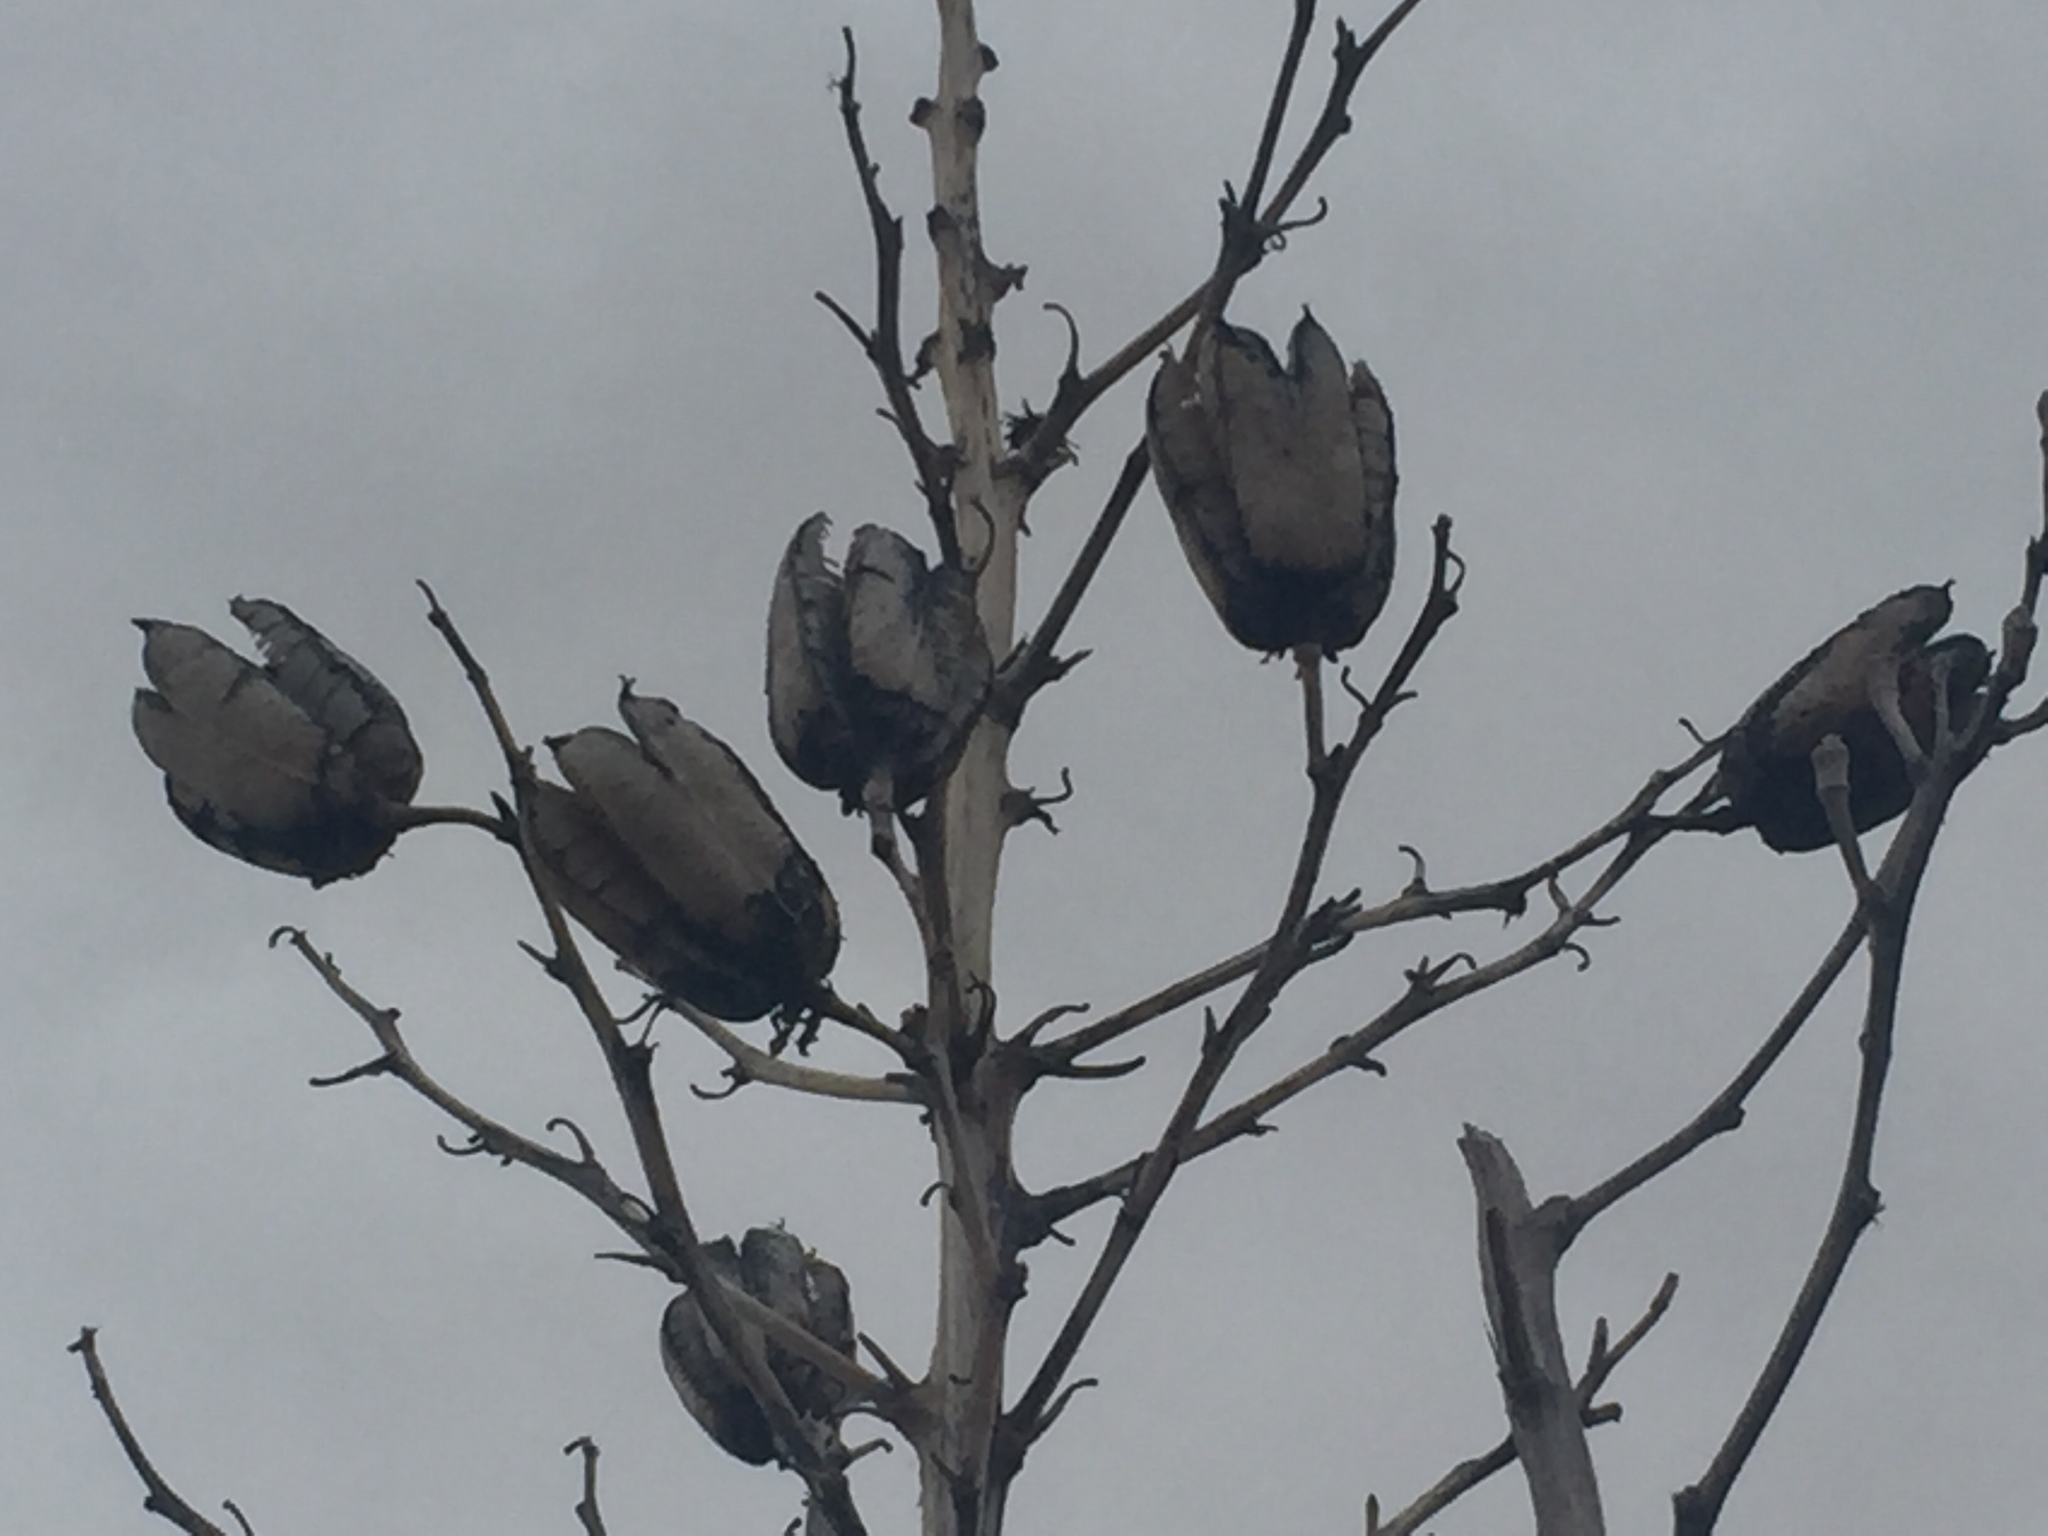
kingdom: Plantae
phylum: Tracheophyta
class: Liliopsida
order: Asparagales
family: Asparagaceae
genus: Yucca
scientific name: Yucca elata
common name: Palmella
